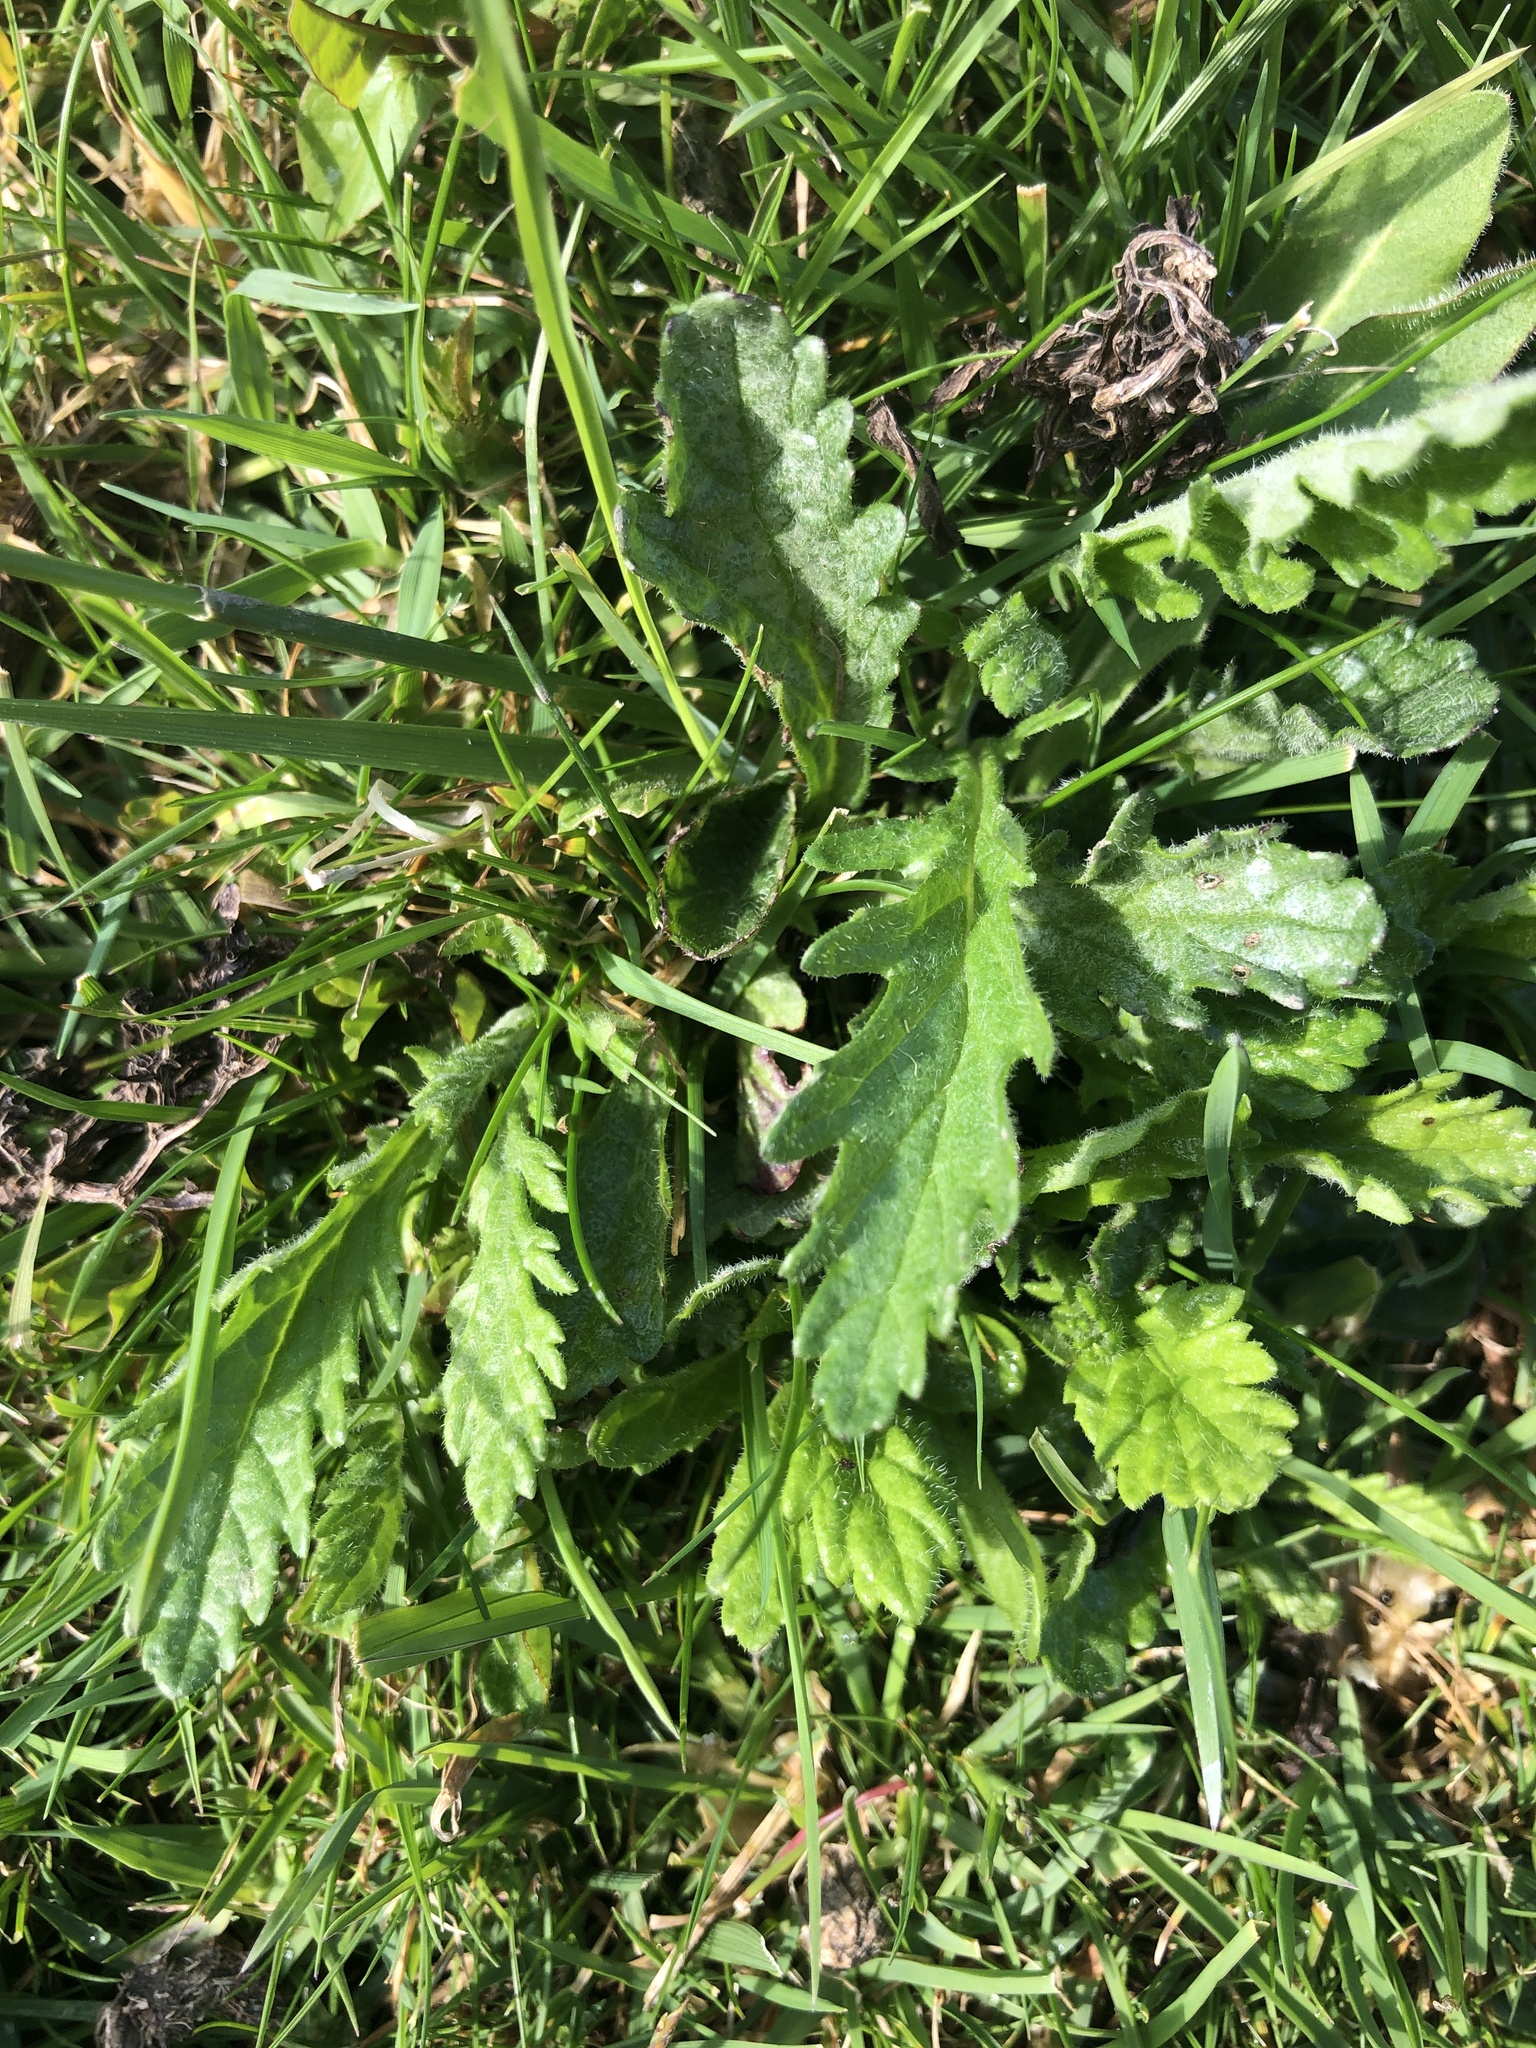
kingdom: Plantae
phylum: Tracheophyta
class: Magnoliopsida
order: Lamiales
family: Verbenaceae
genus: Verbena
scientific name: Verbena officinalis
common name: Vervain
